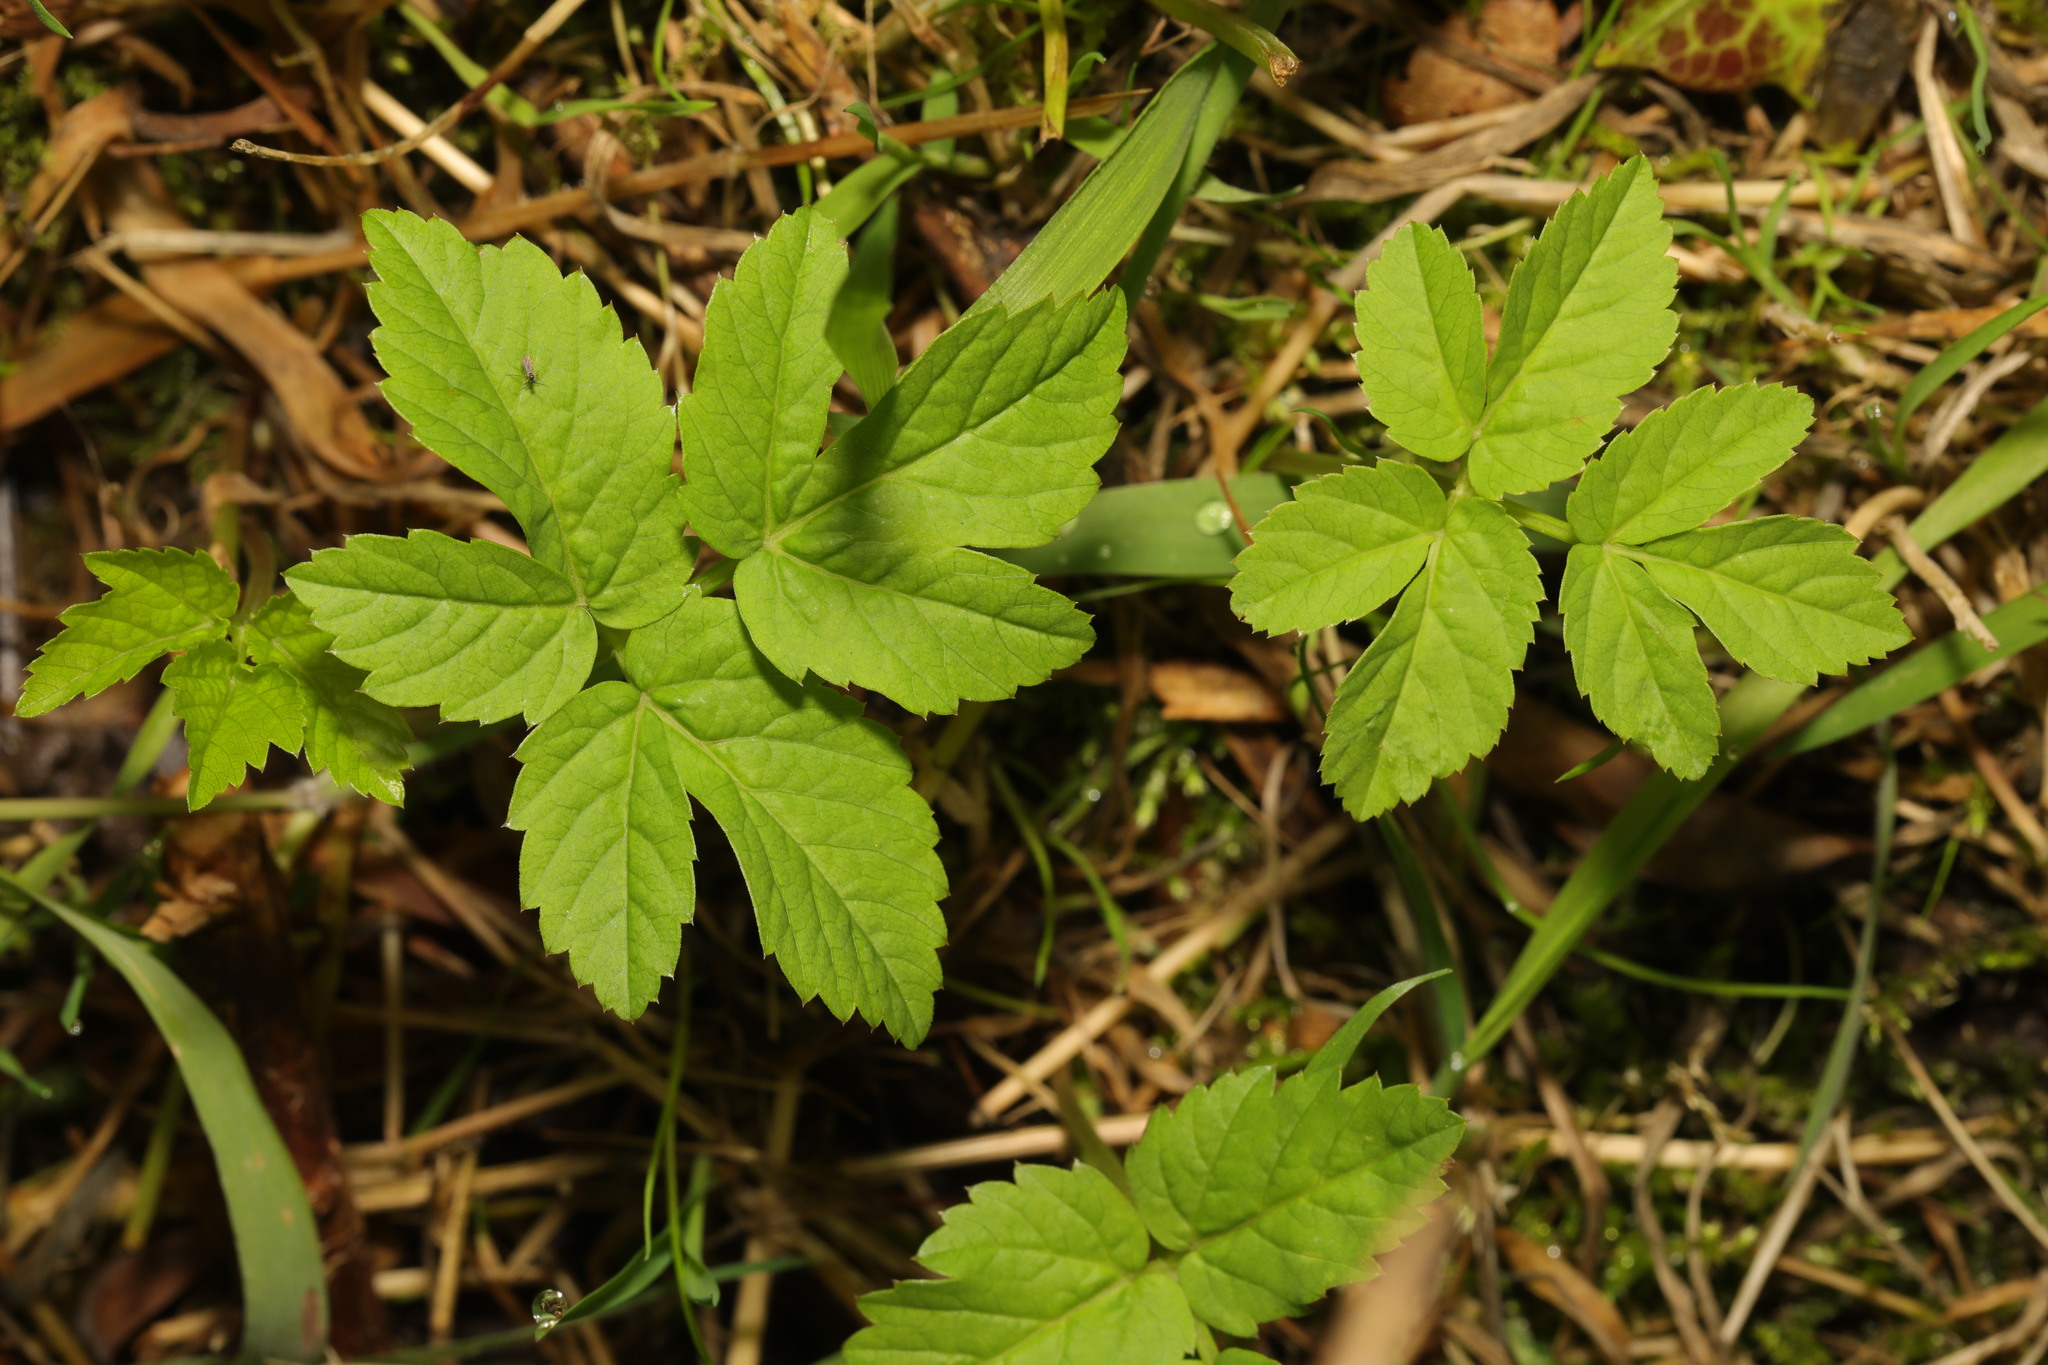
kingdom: Plantae
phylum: Tracheophyta
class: Magnoliopsida
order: Apiales
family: Apiaceae
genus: Aegopodium
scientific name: Aegopodium podagraria
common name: Ground-elder
